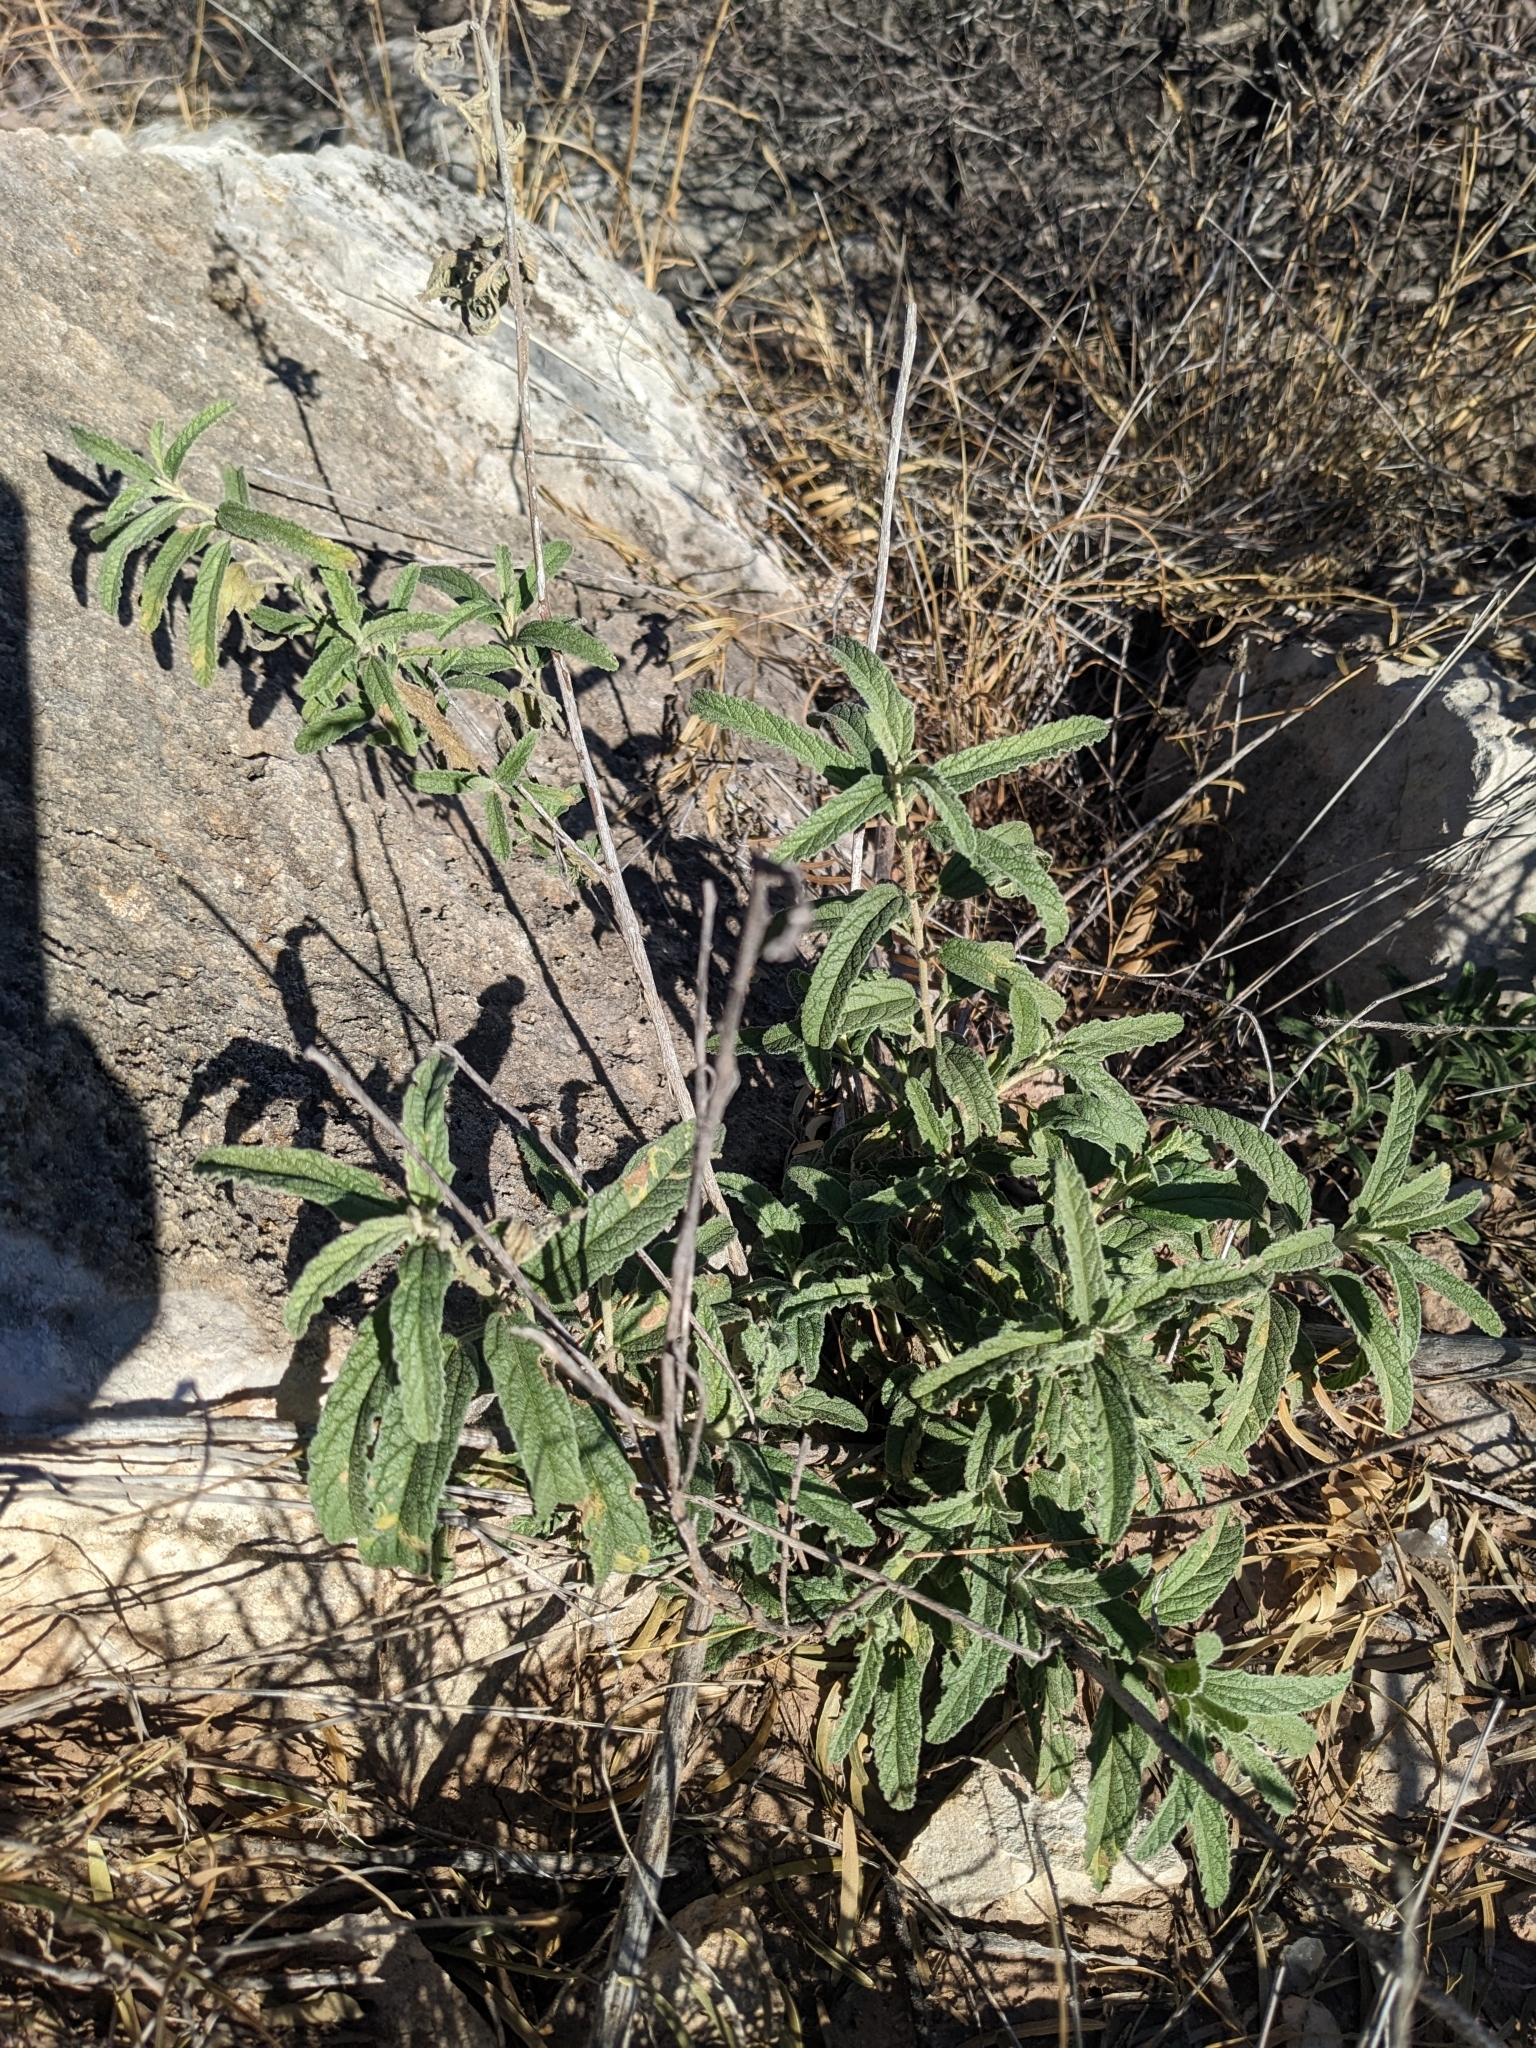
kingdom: Plantae
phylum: Tracheophyta
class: Magnoliopsida
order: Malvales
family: Malvaceae
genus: Sphaeralcea
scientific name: Sphaeralcea angustifolia
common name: Copper globe-mallow
